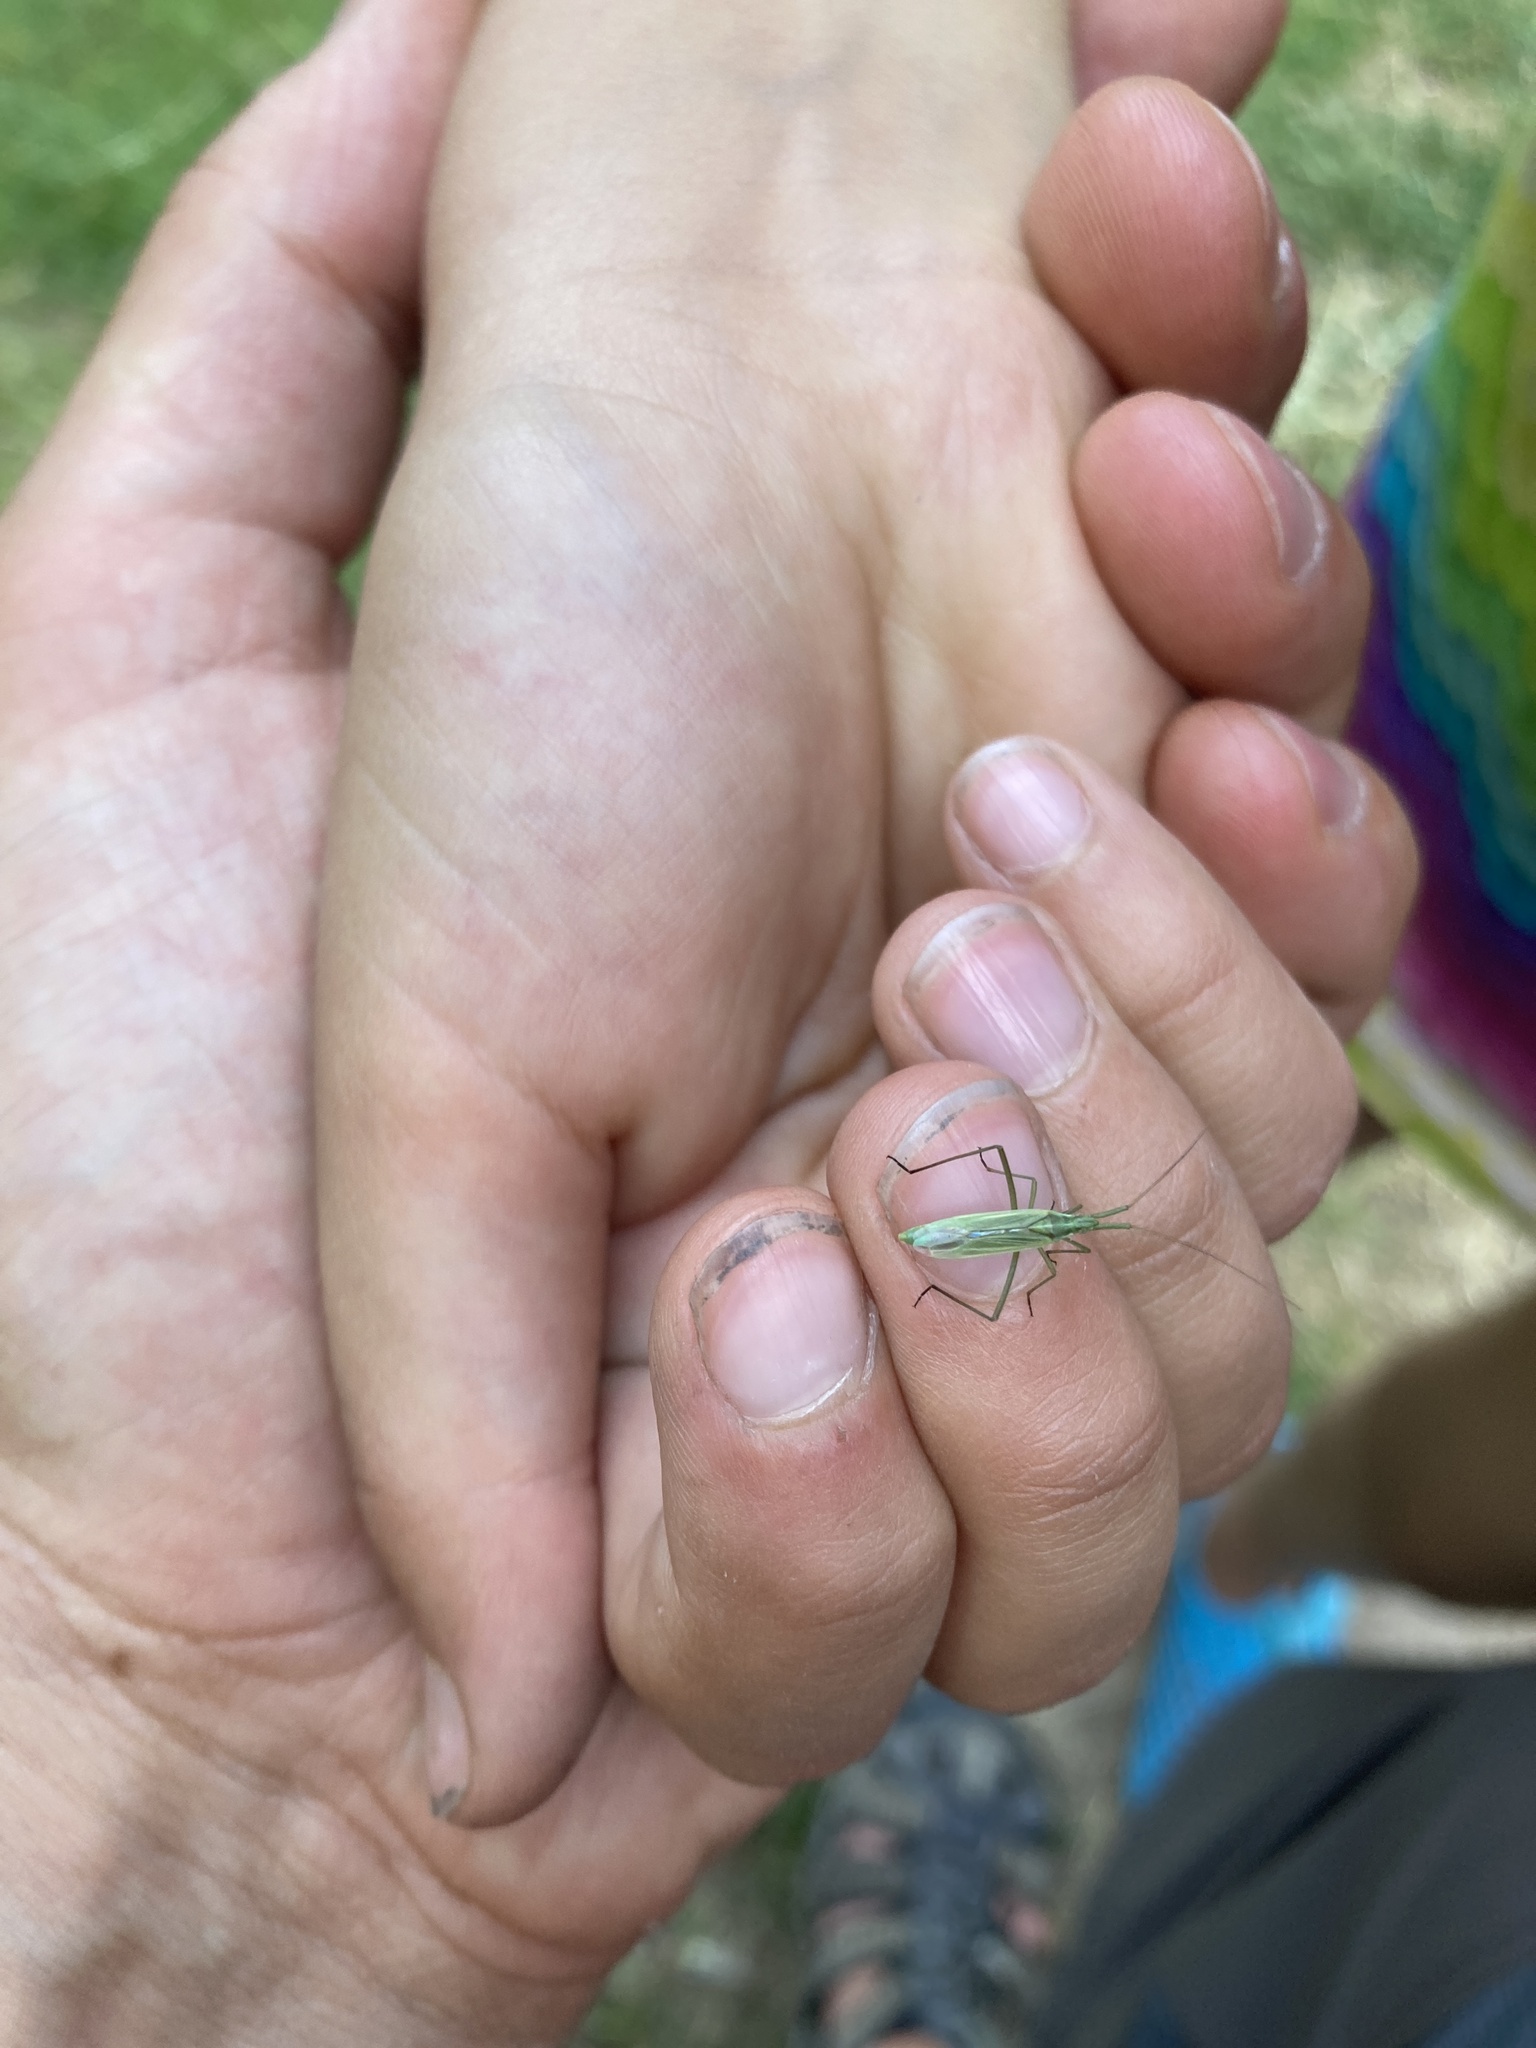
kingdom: Animalia
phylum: Arthropoda
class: Insecta
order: Hemiptera
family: Miridae
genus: Megaloceroea
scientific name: Megaloceroea recticornis
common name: Plant bug
